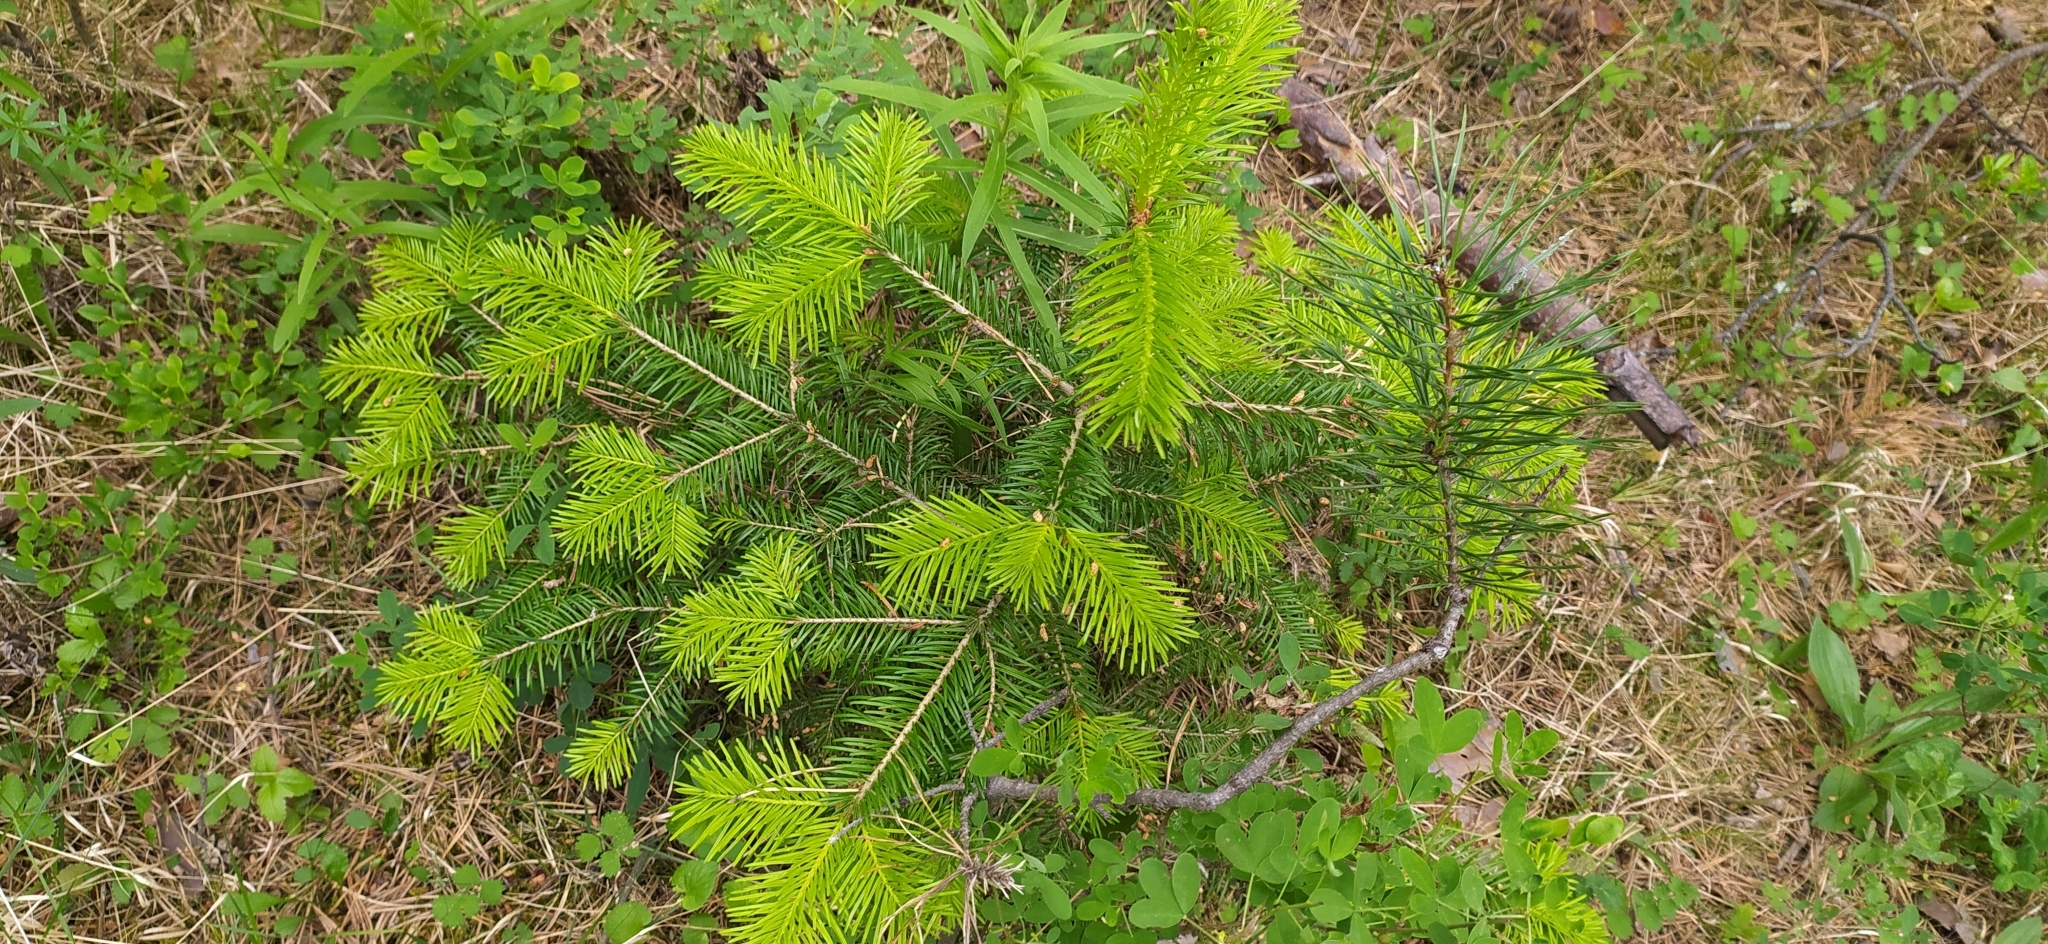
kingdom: Plantae
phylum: Tracheophyta
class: Pinopsida
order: Pinales
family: Pinaceae
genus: Abies
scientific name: Abies sibirica
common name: Siberian fir
